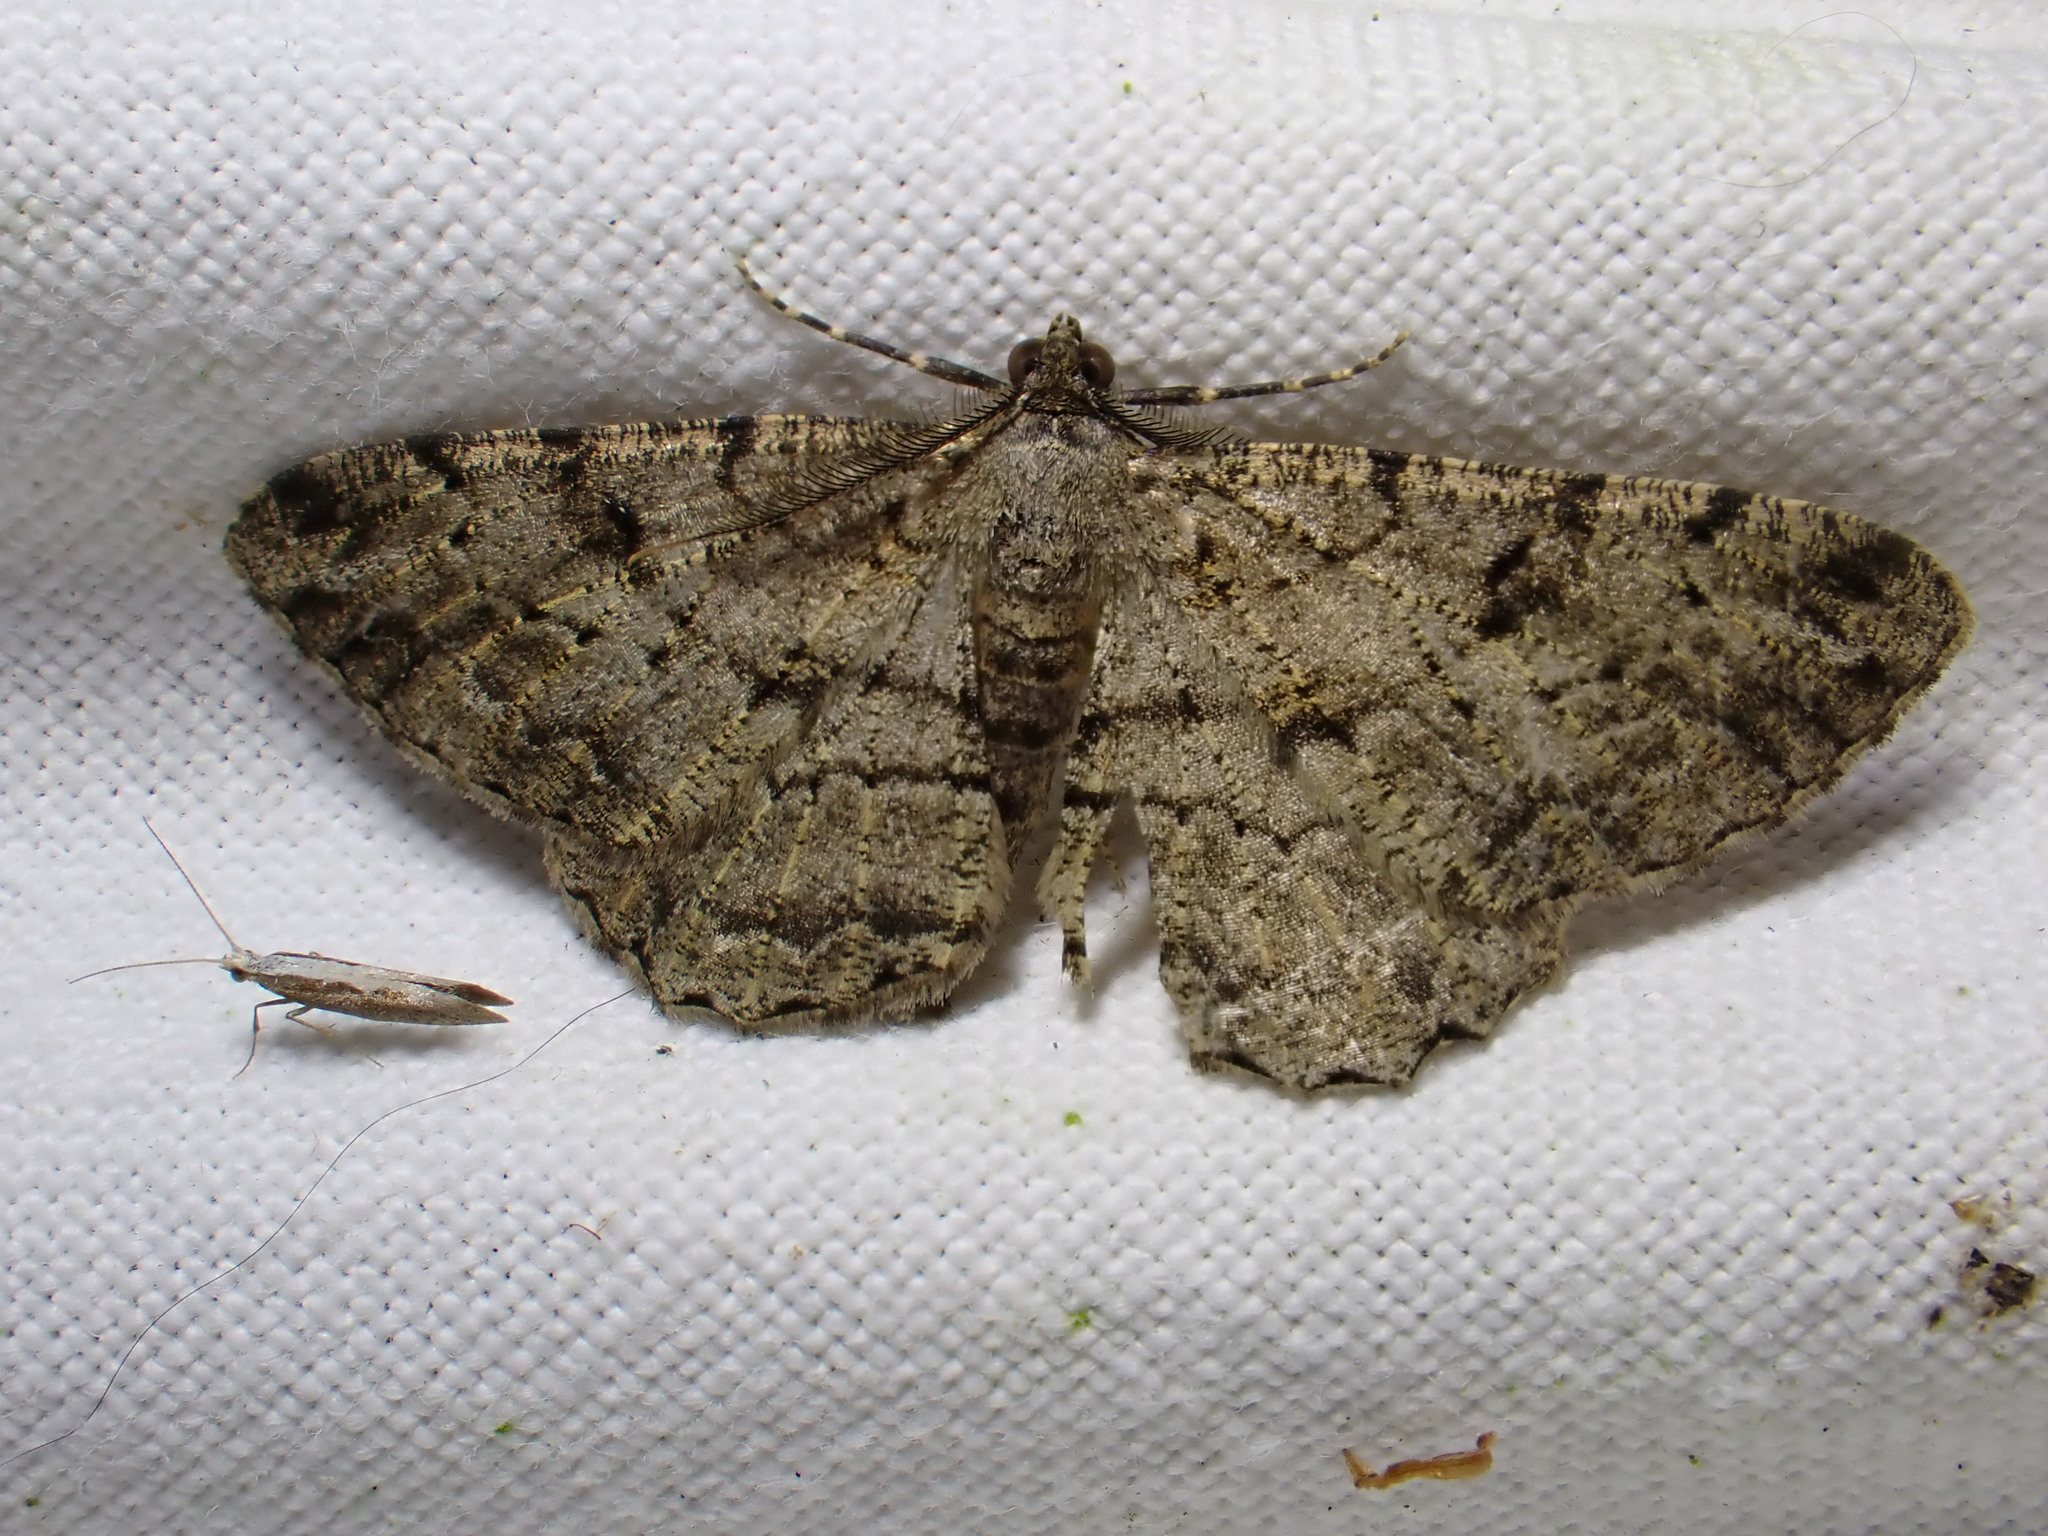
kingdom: Animalia
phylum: Arthropoda
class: Insecta
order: Lepidoptera
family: Geometridae
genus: Peribatodes
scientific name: Peribatodes rhomboidaria
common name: Willow beauty
